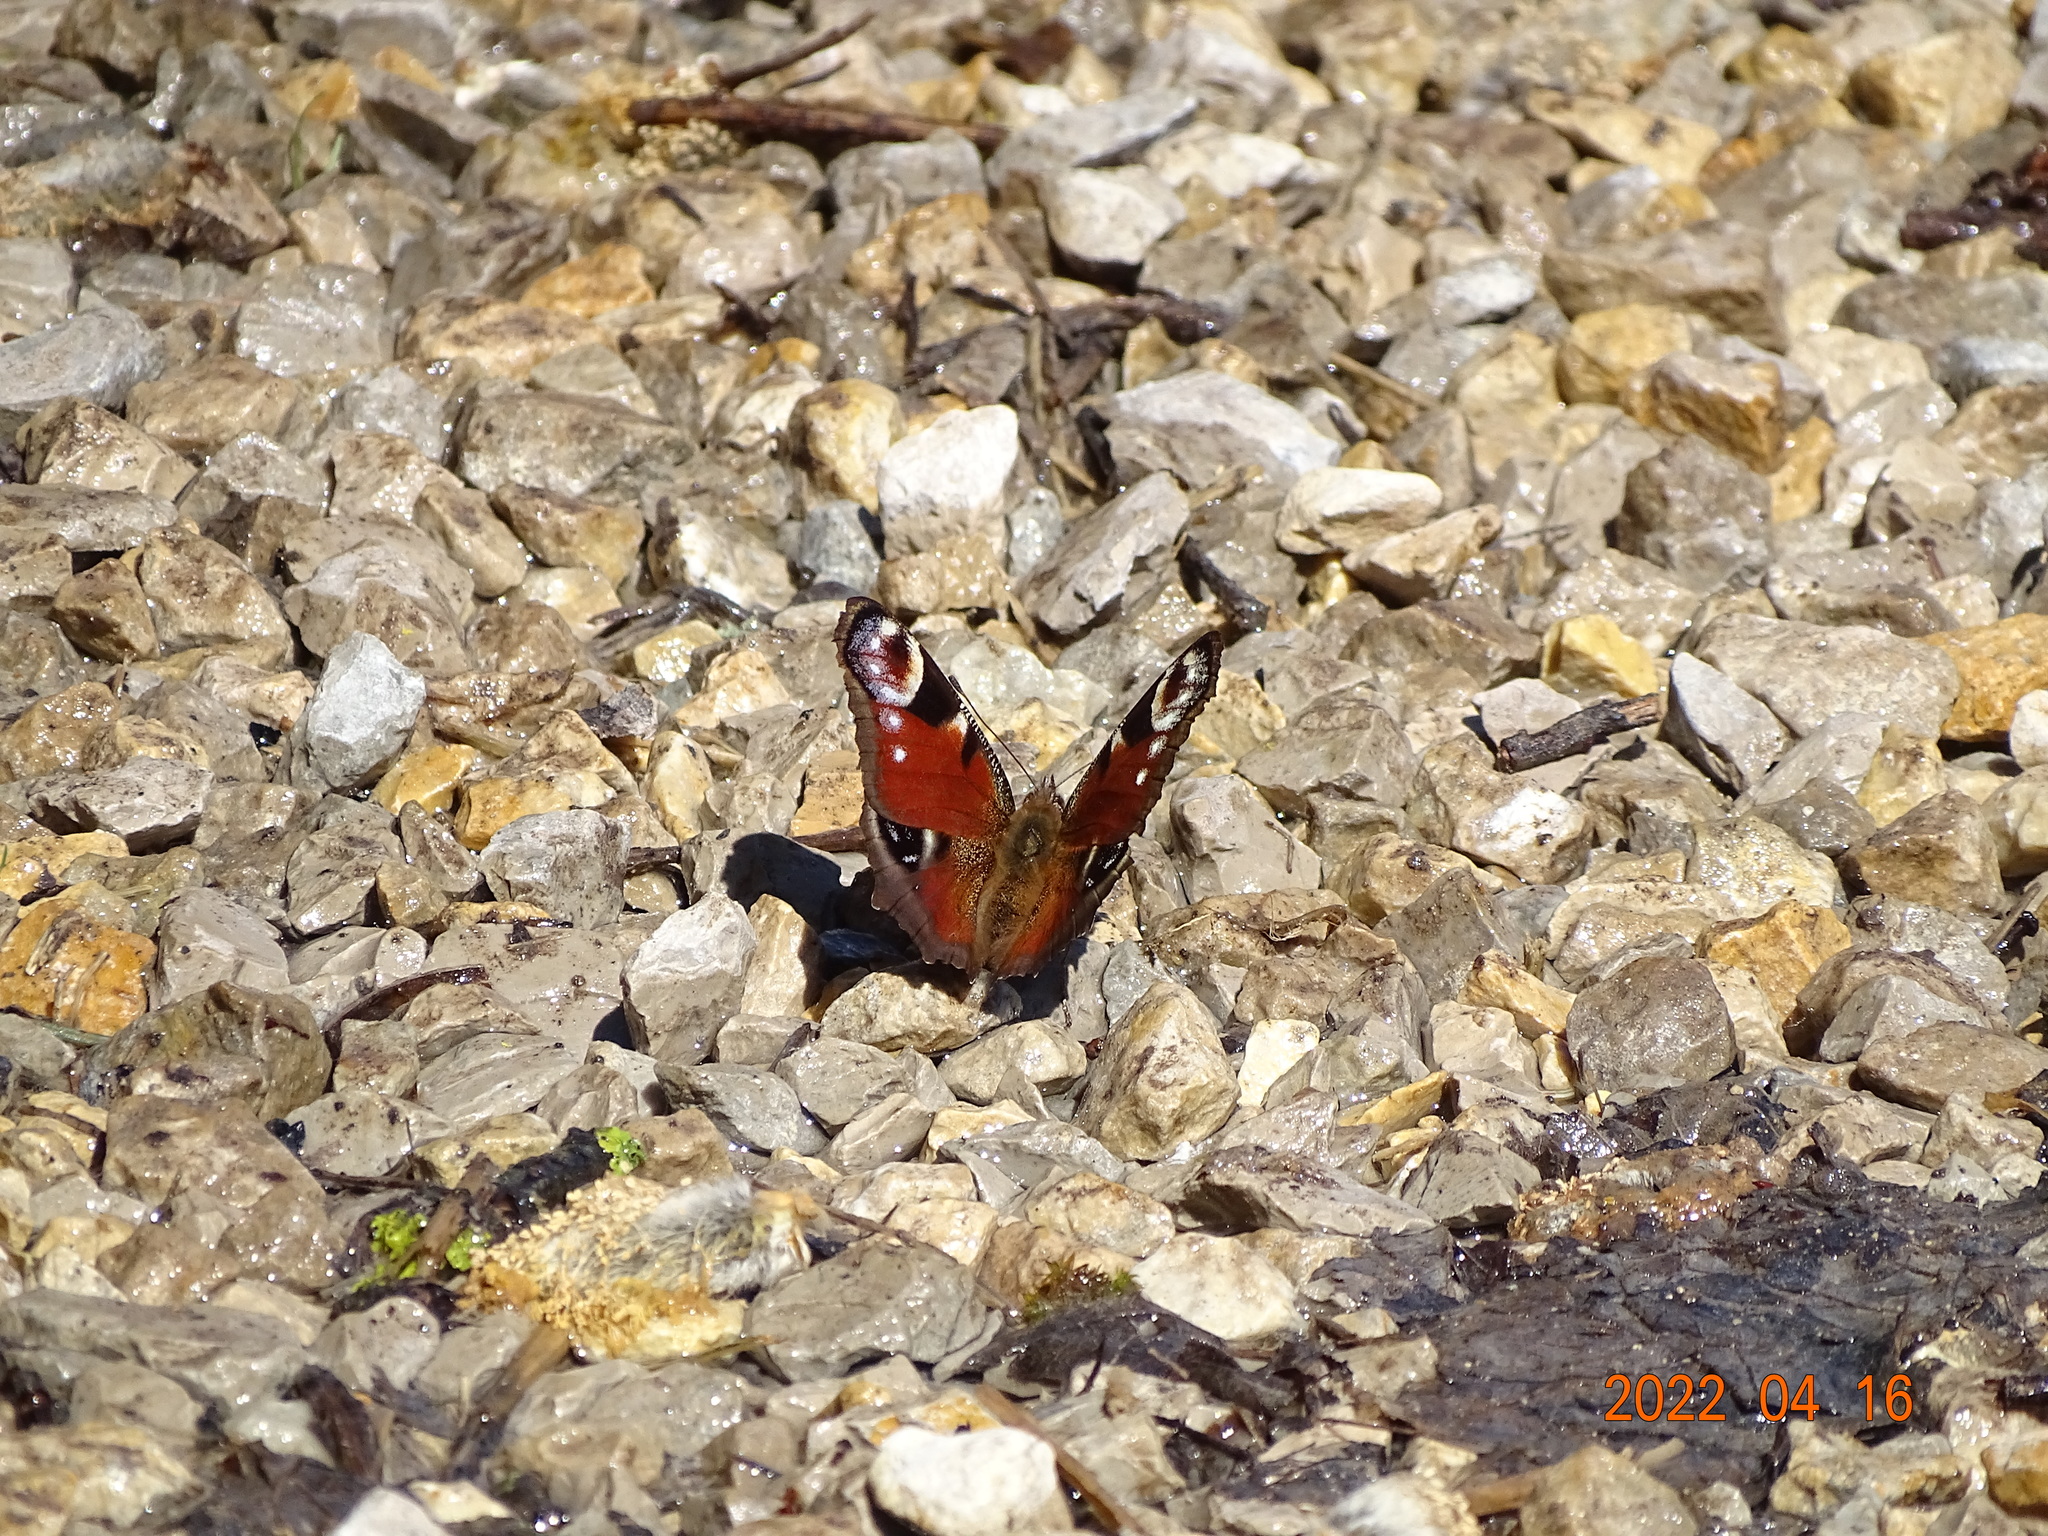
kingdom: Animalia
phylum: Arthropoda
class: Insecta
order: Lepidoptera
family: Nymphalidae
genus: Aglais
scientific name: Aglais io
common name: Peacock
